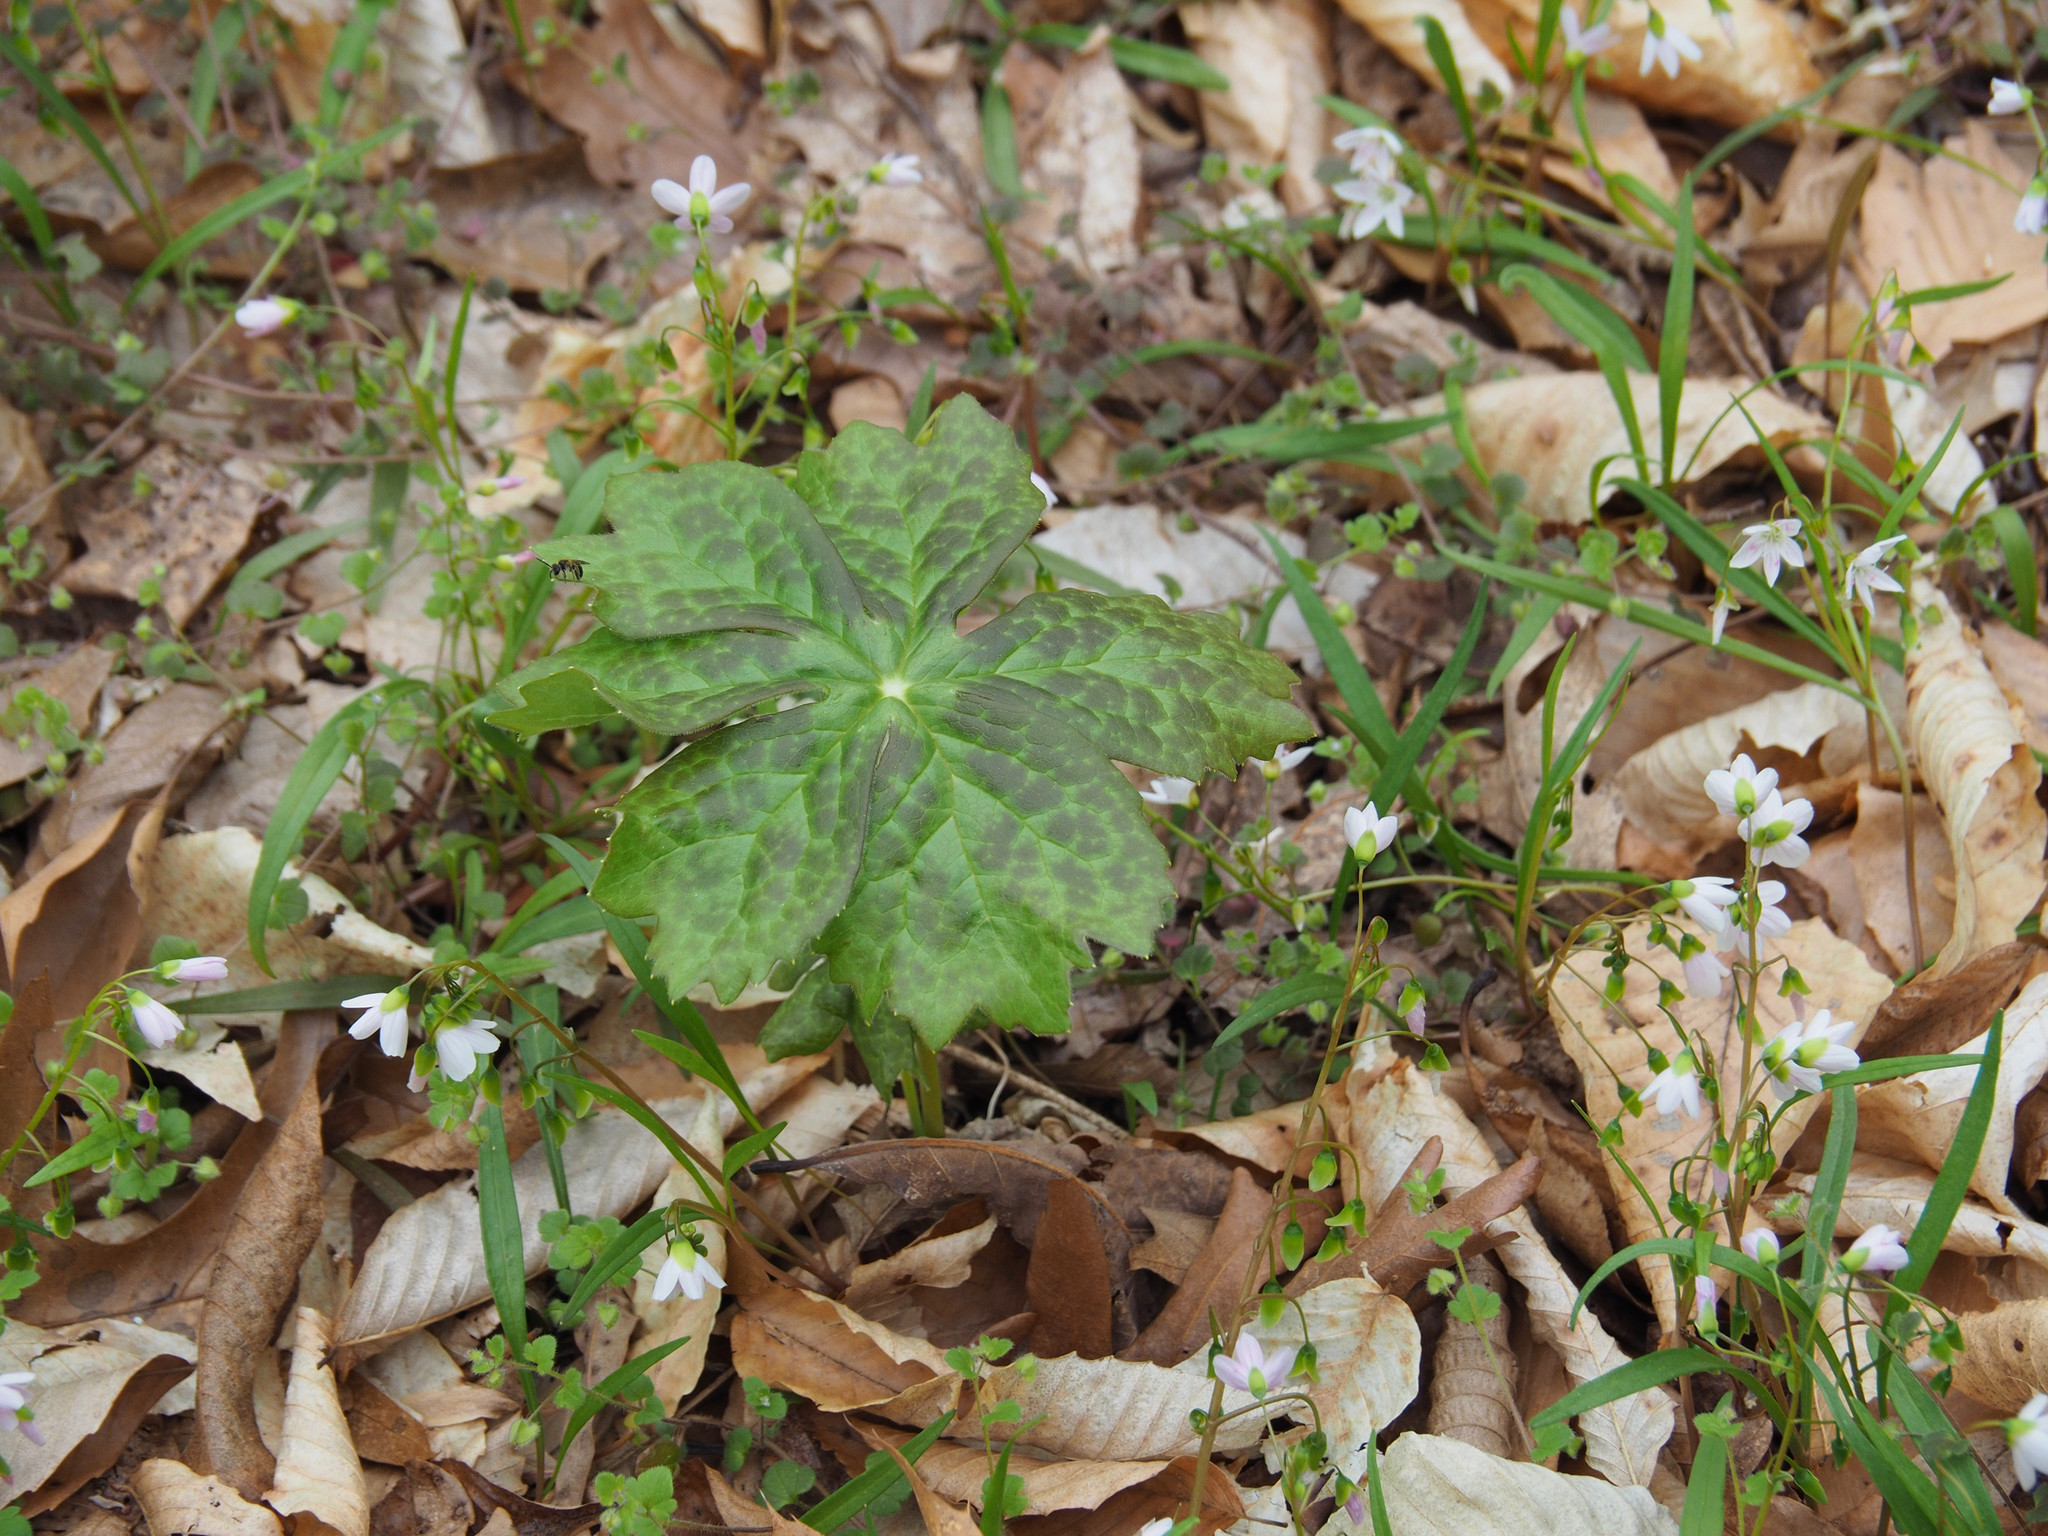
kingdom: Plantae
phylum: Tracheophyta
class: Magnoliopsida
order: Ranunculales
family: Berberidaceae
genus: Podophyllum
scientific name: Podophyllum peltatum
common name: Wild mandrake
